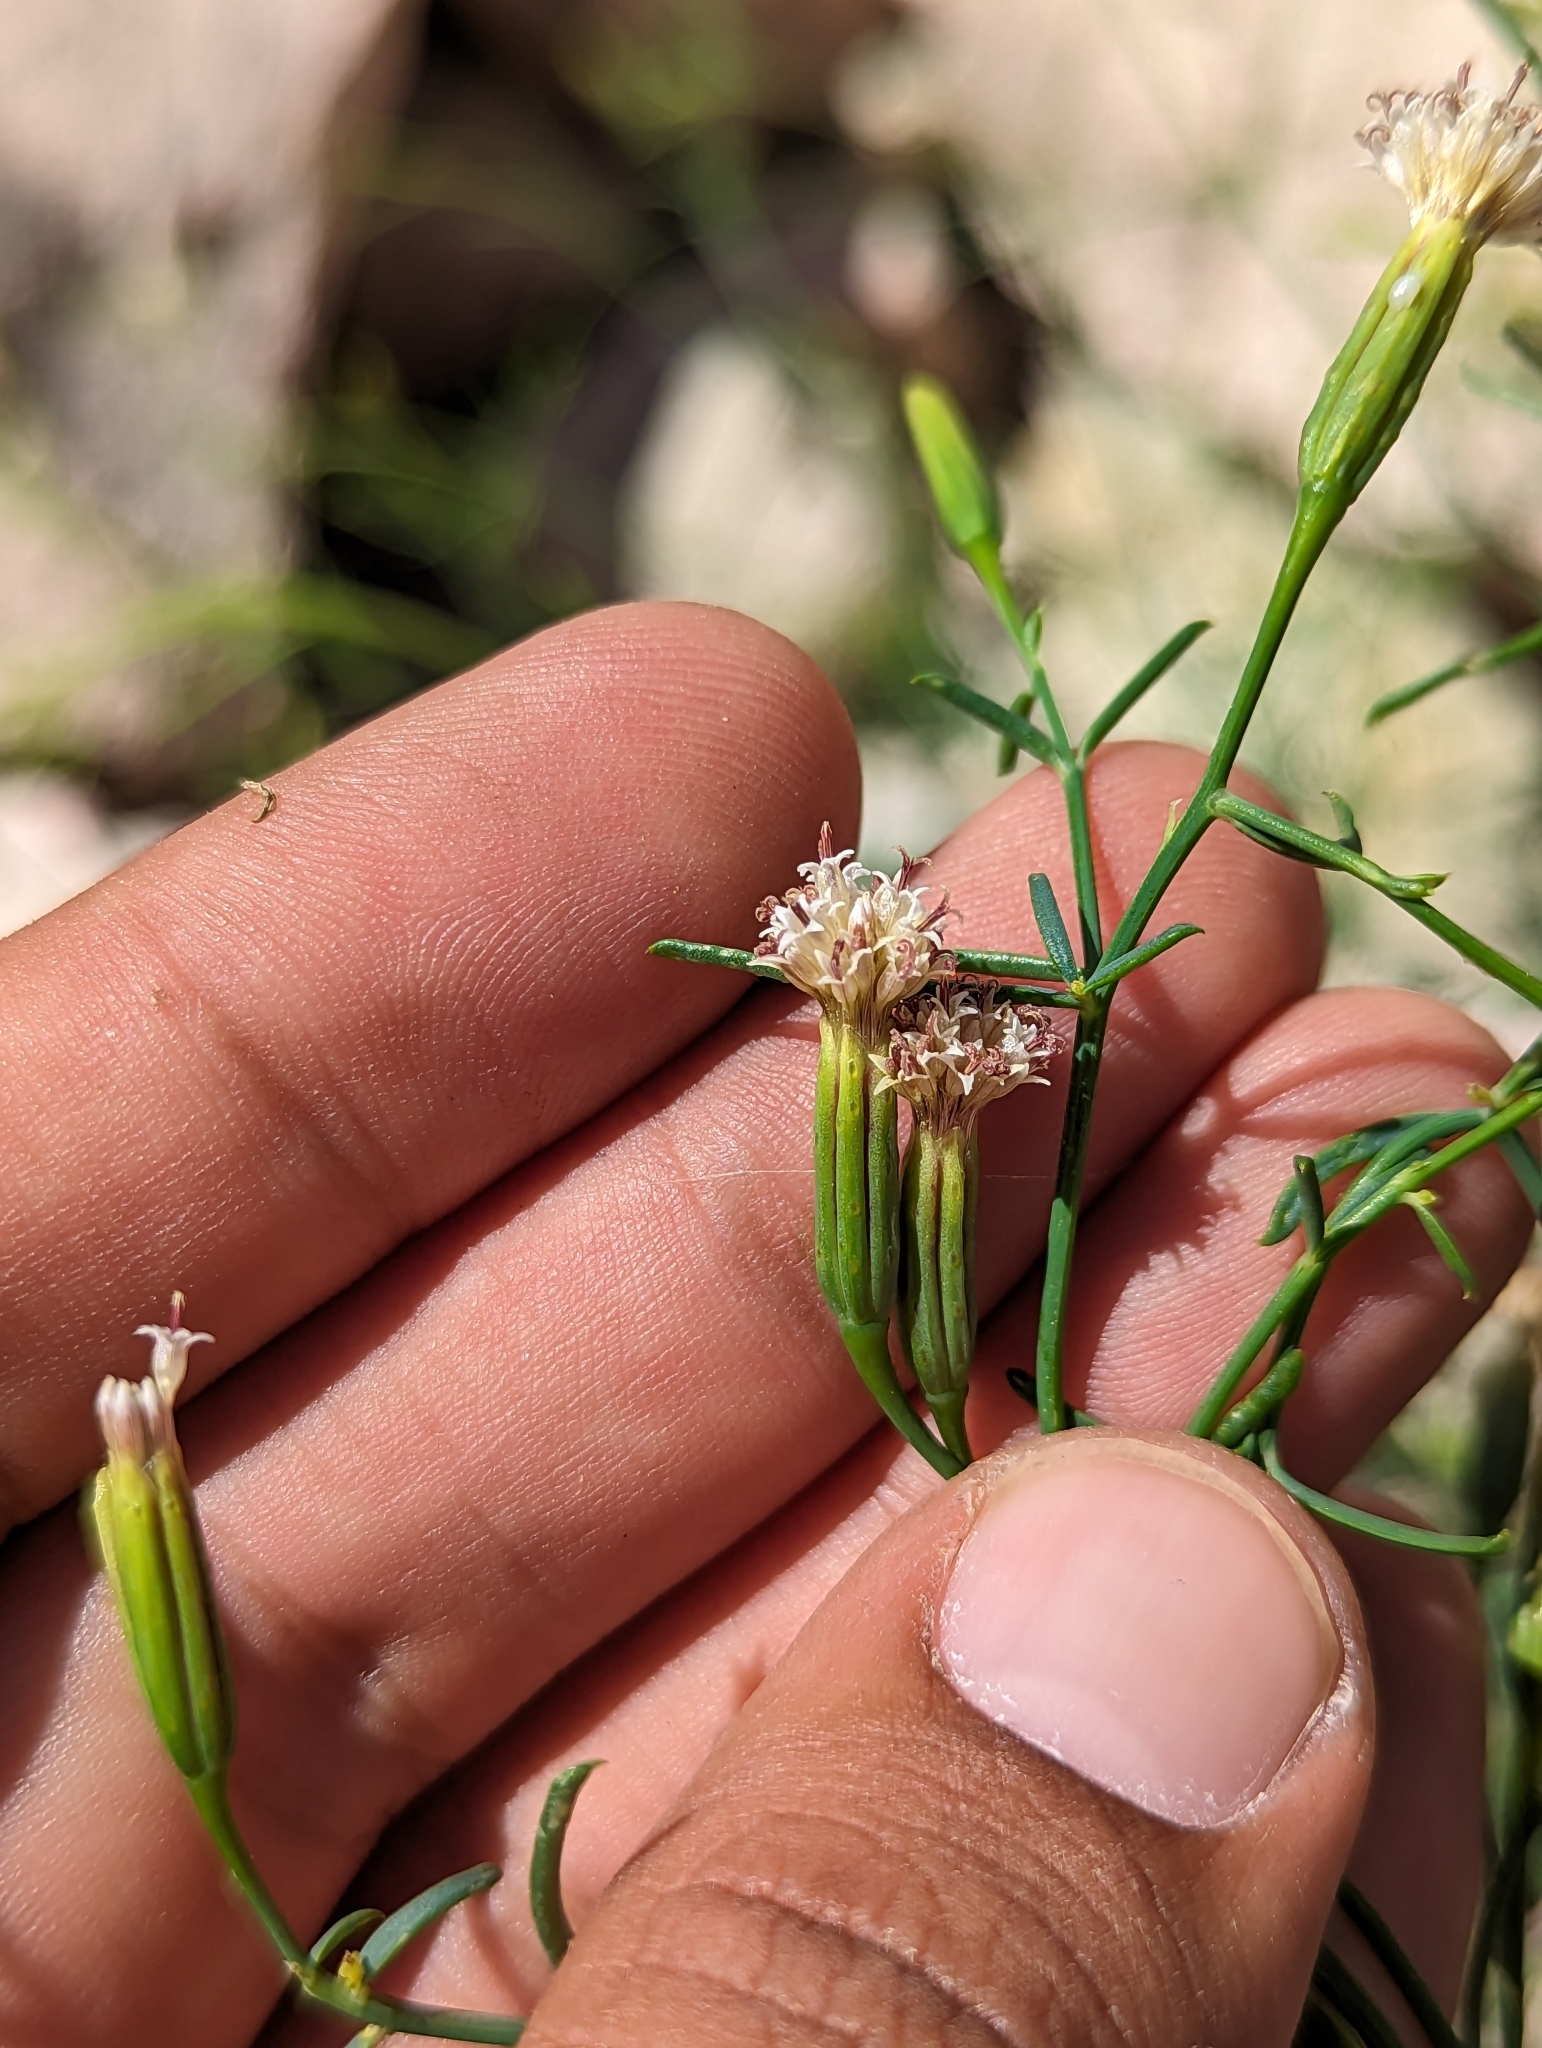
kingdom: Plantae
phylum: Tracheophyta
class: Magnoliopsida
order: Asterales
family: Asteraceae
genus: Porophyllum
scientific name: Porophyllum gracile
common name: Odora
